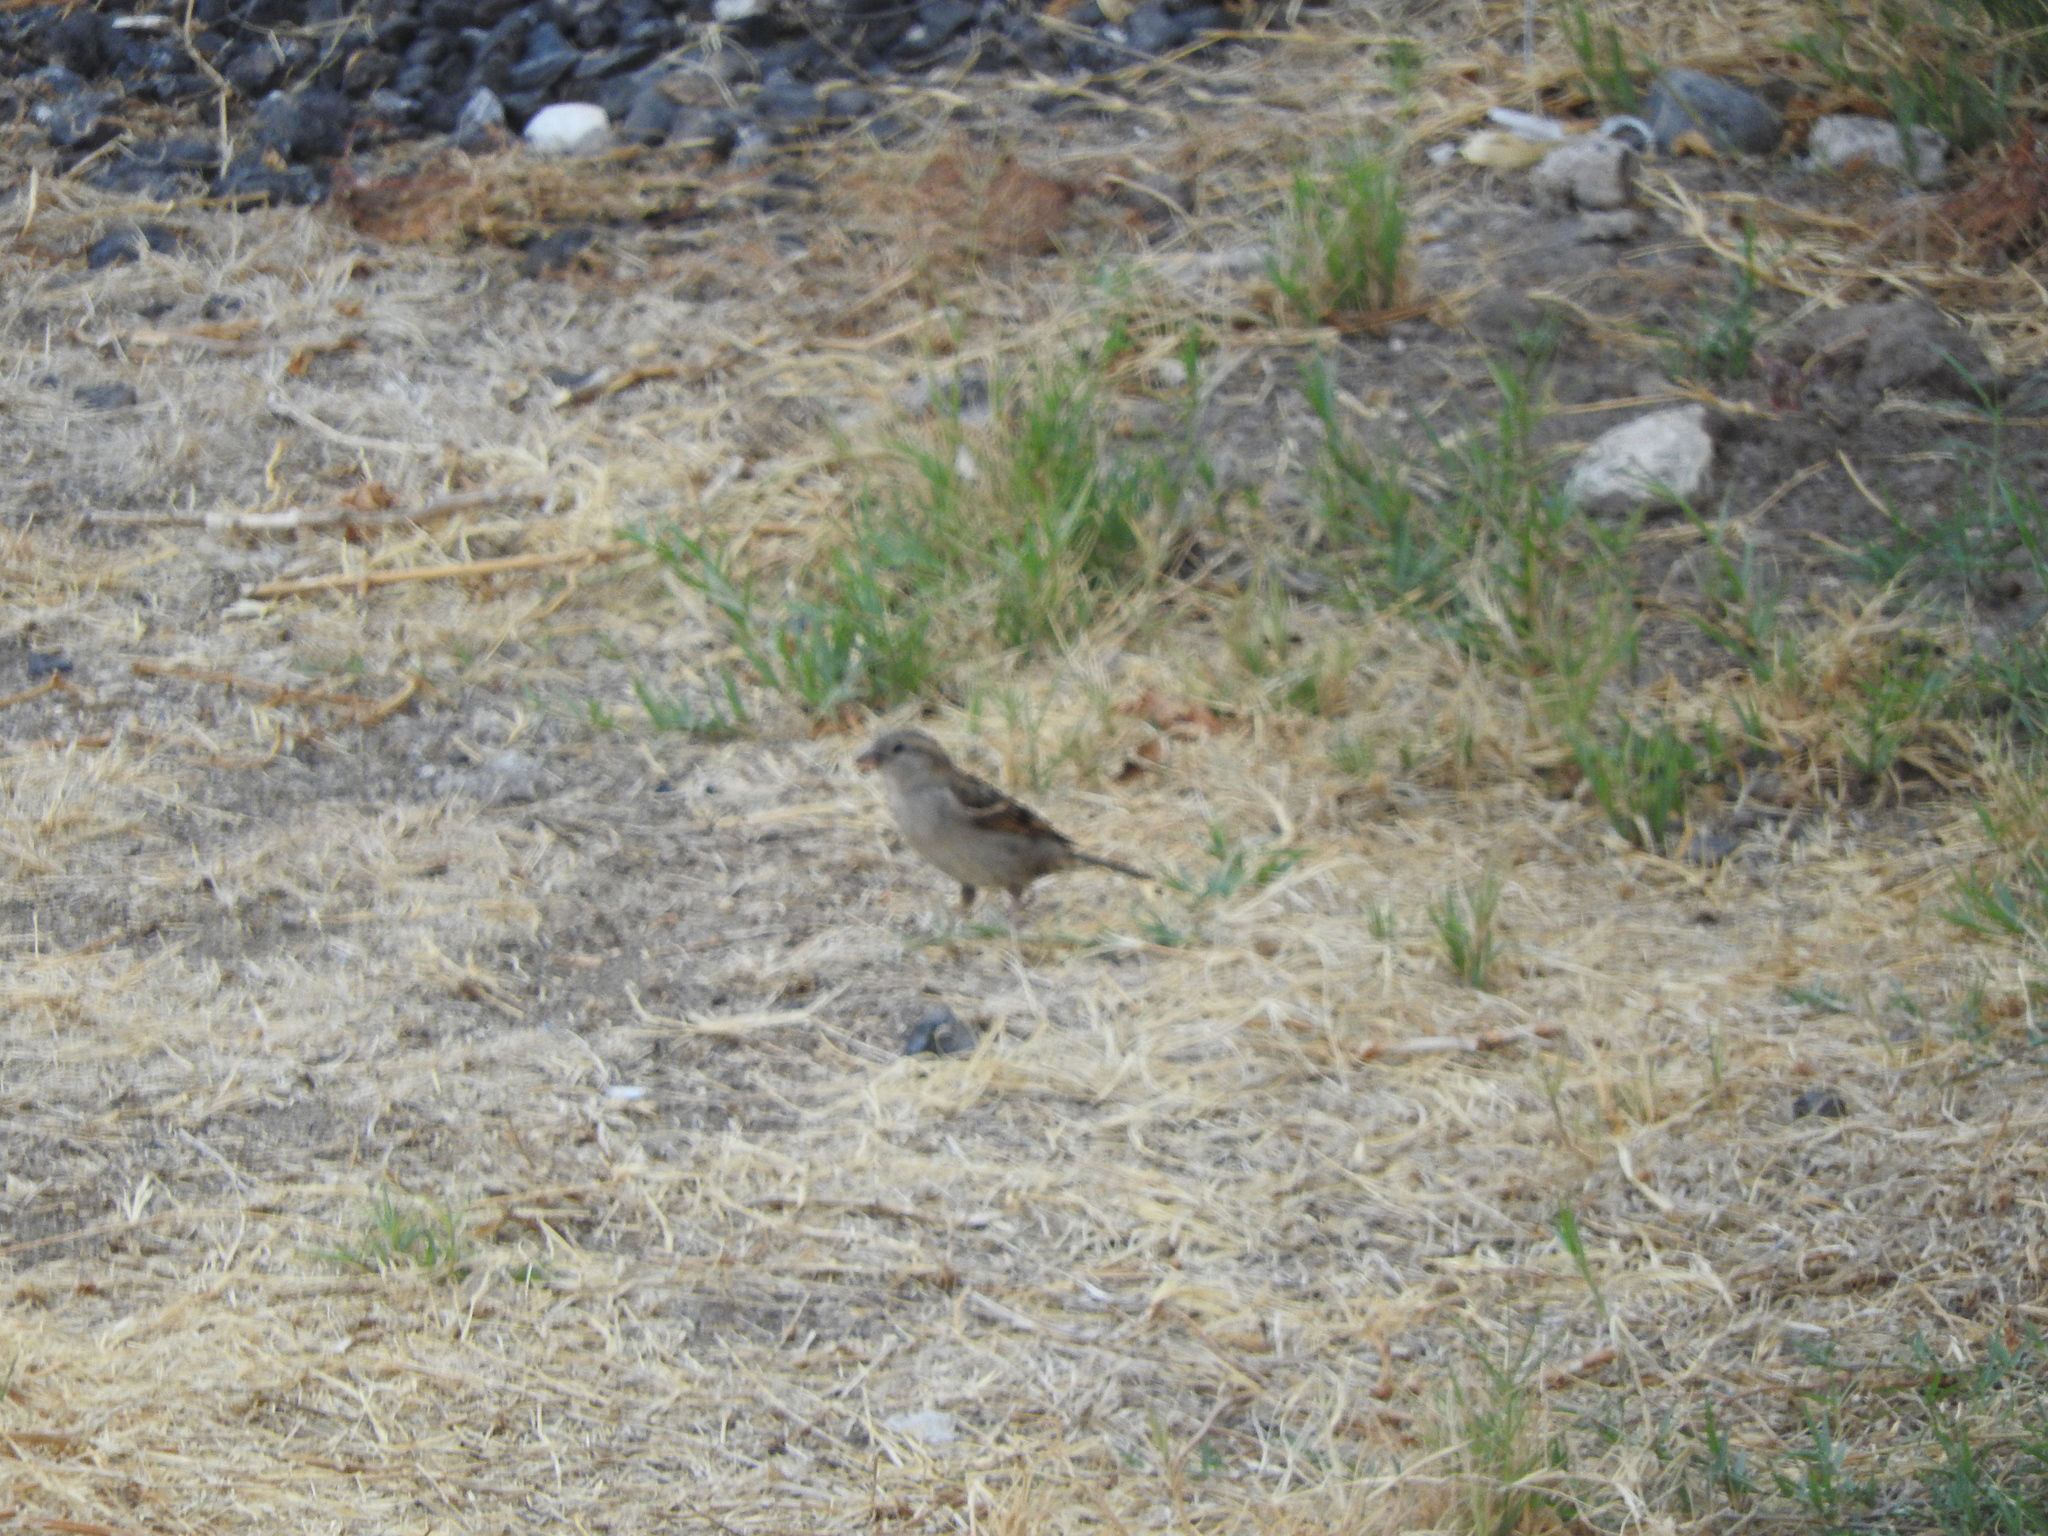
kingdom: Animalia
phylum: Chordata
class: Aves
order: Passeriformes
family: Passeridae
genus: Passer
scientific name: Passer domesticus
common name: House sparrow
